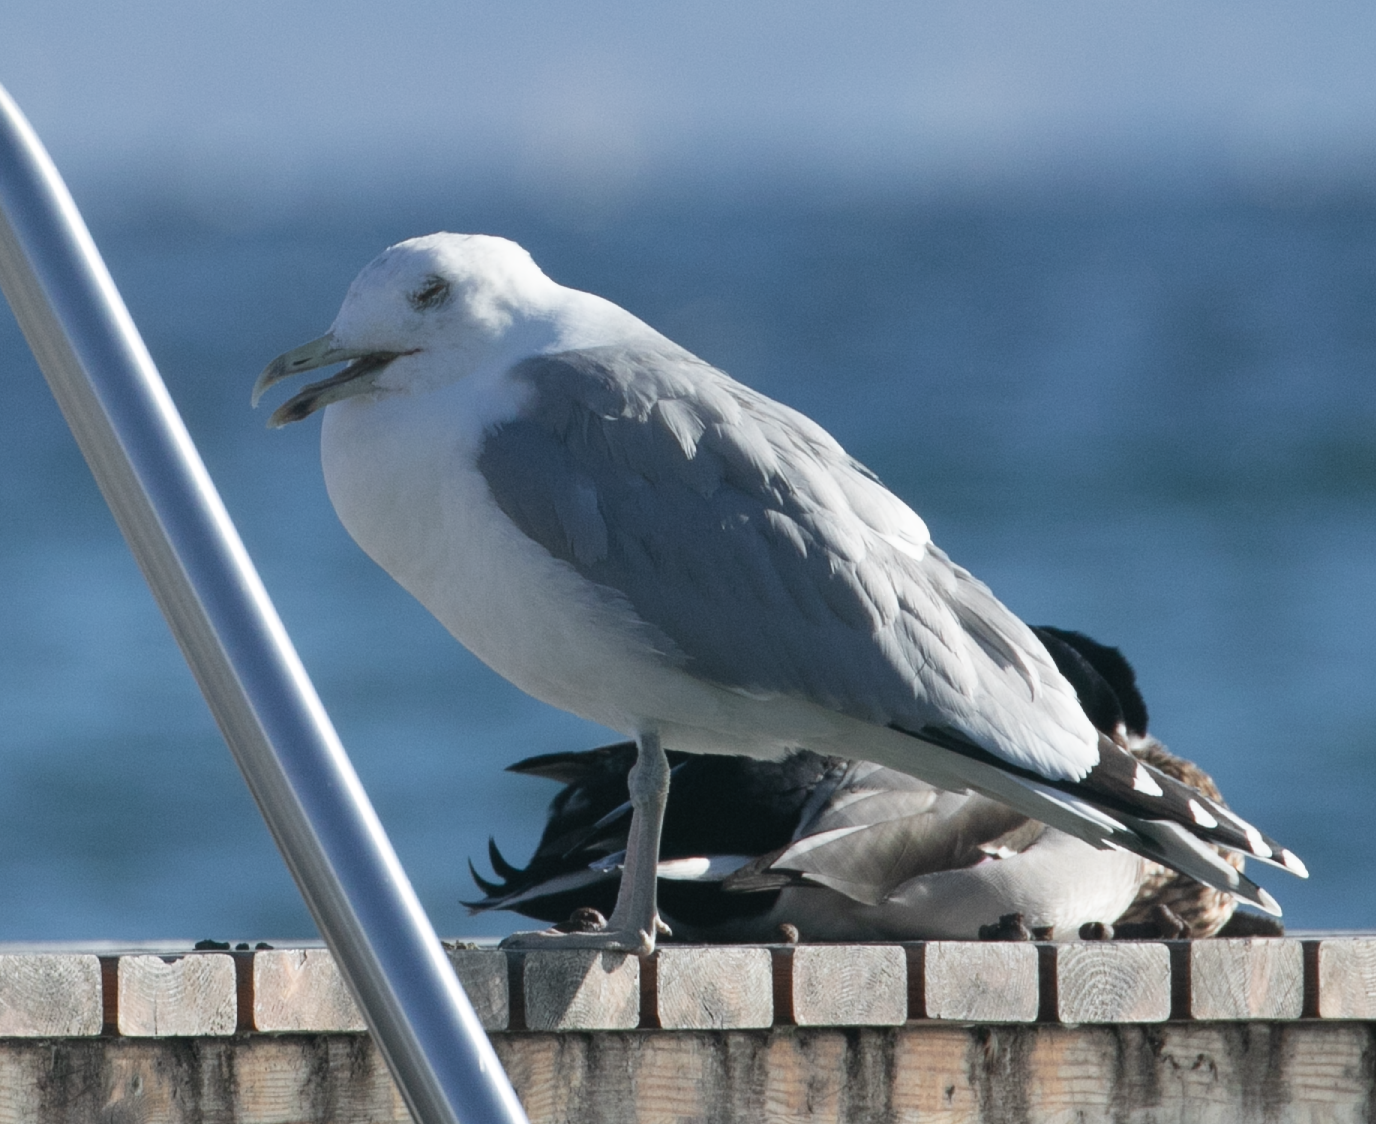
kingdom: Animalia
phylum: Chordata
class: Aves
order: Charadriiformes
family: Laridae
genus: Larus
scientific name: Larus argentatus
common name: Herring gull
